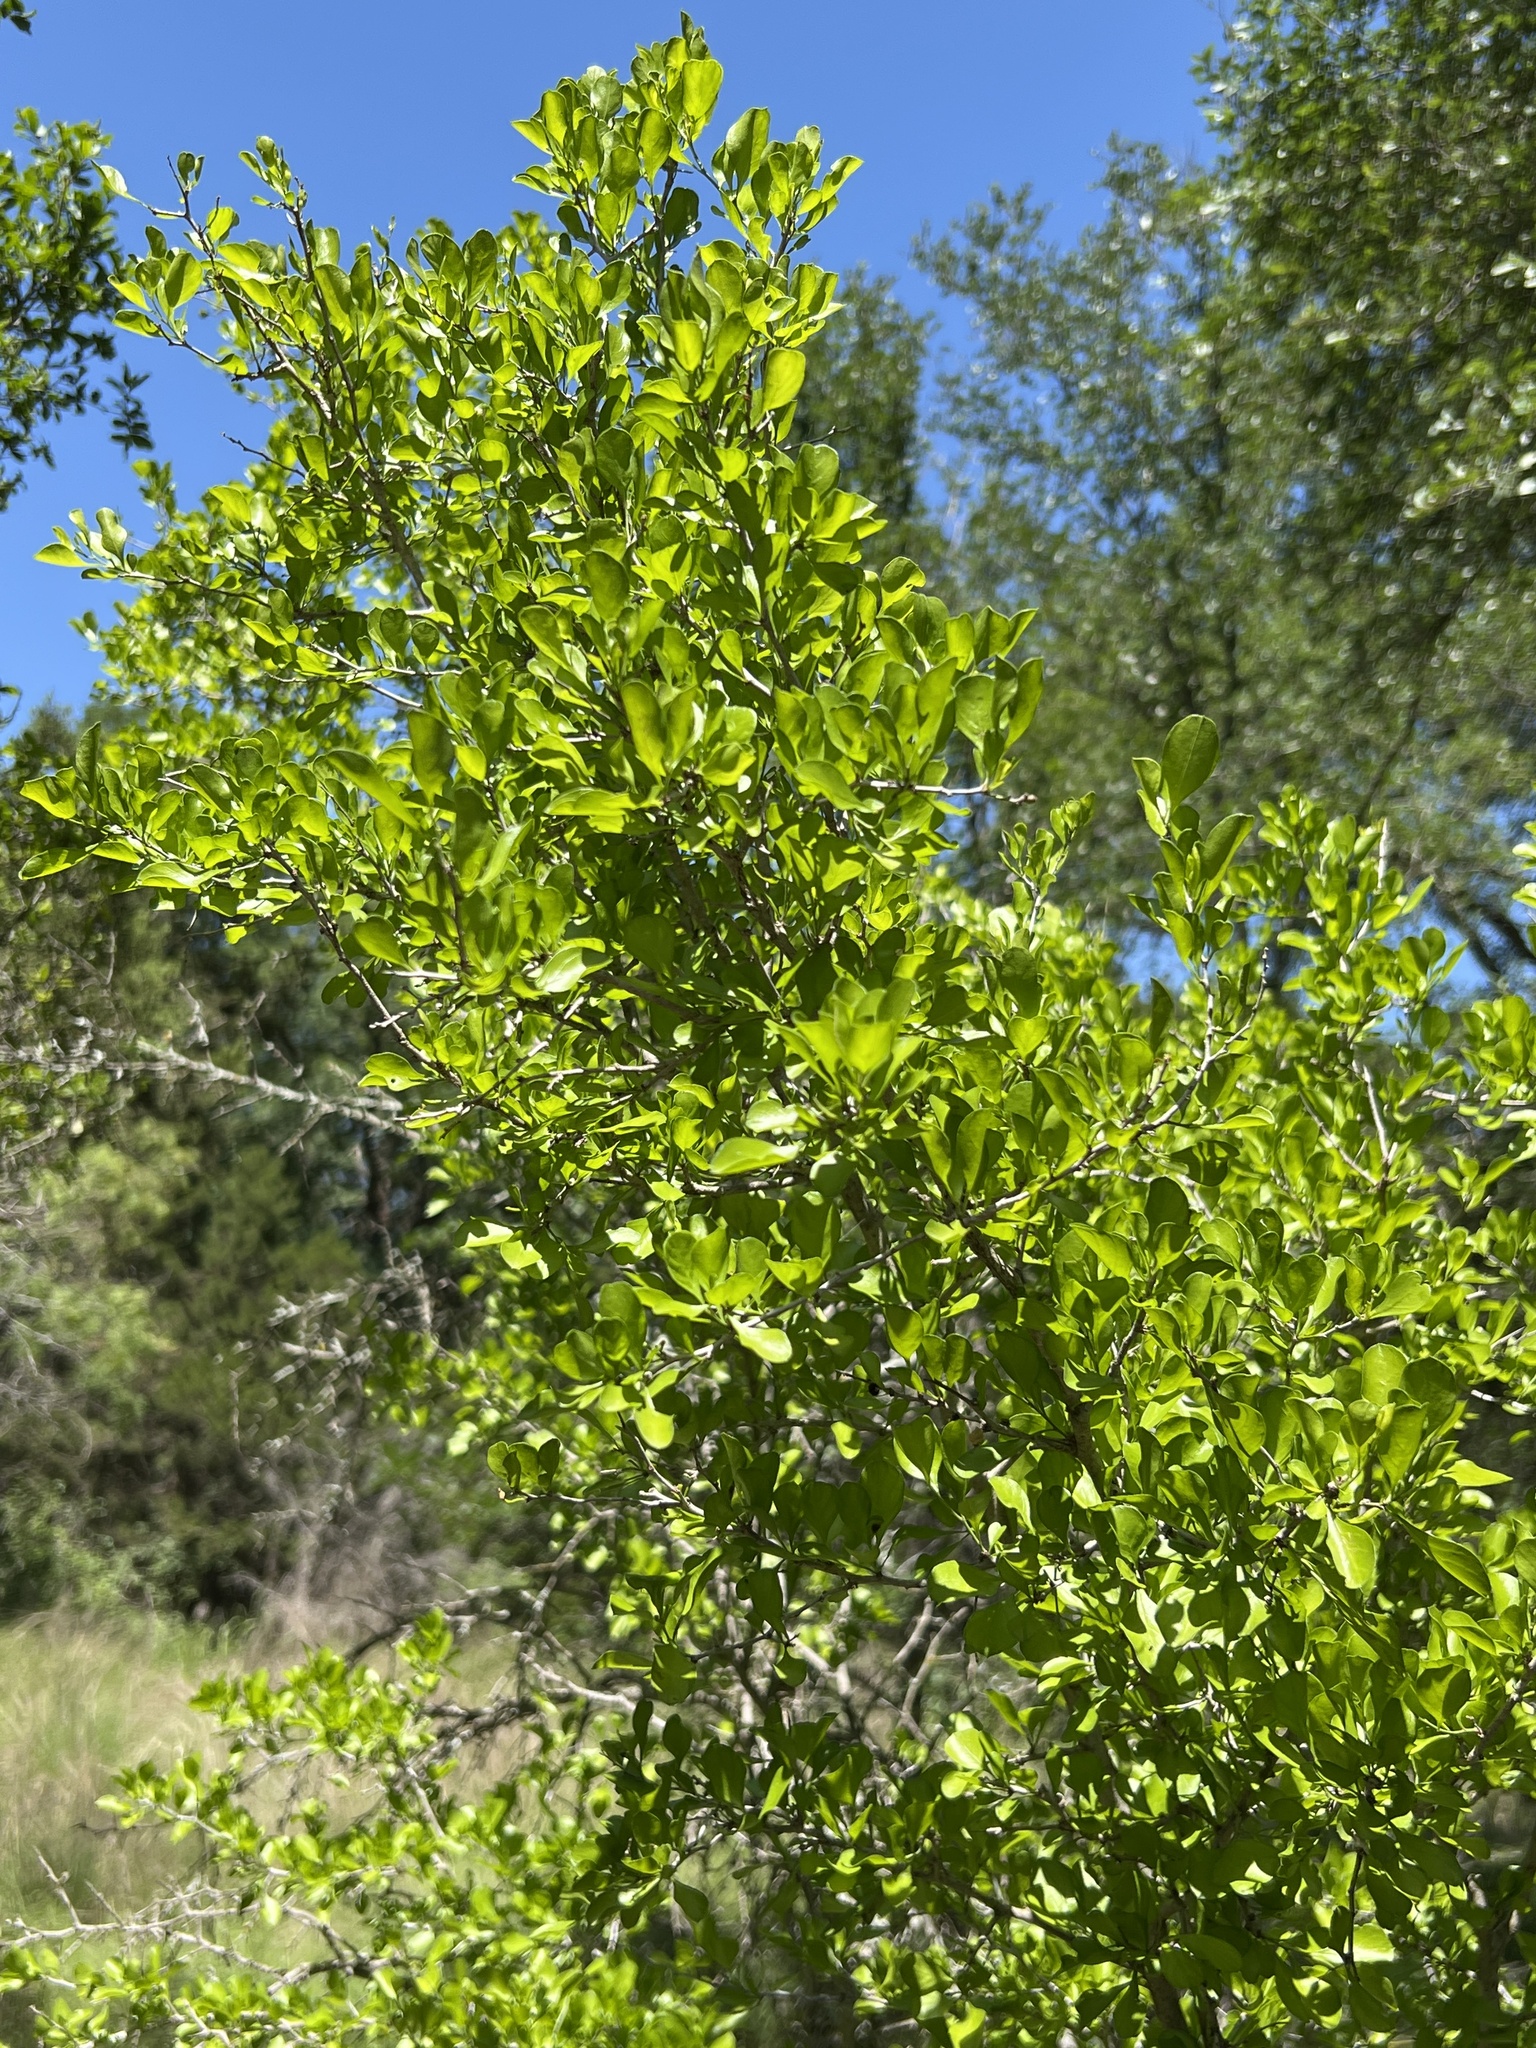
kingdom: Plantae
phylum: Tracheophyta
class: Magnoliopsida
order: Rosales
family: Rhamnaceae
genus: Condalia
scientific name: Condalia hookeri
